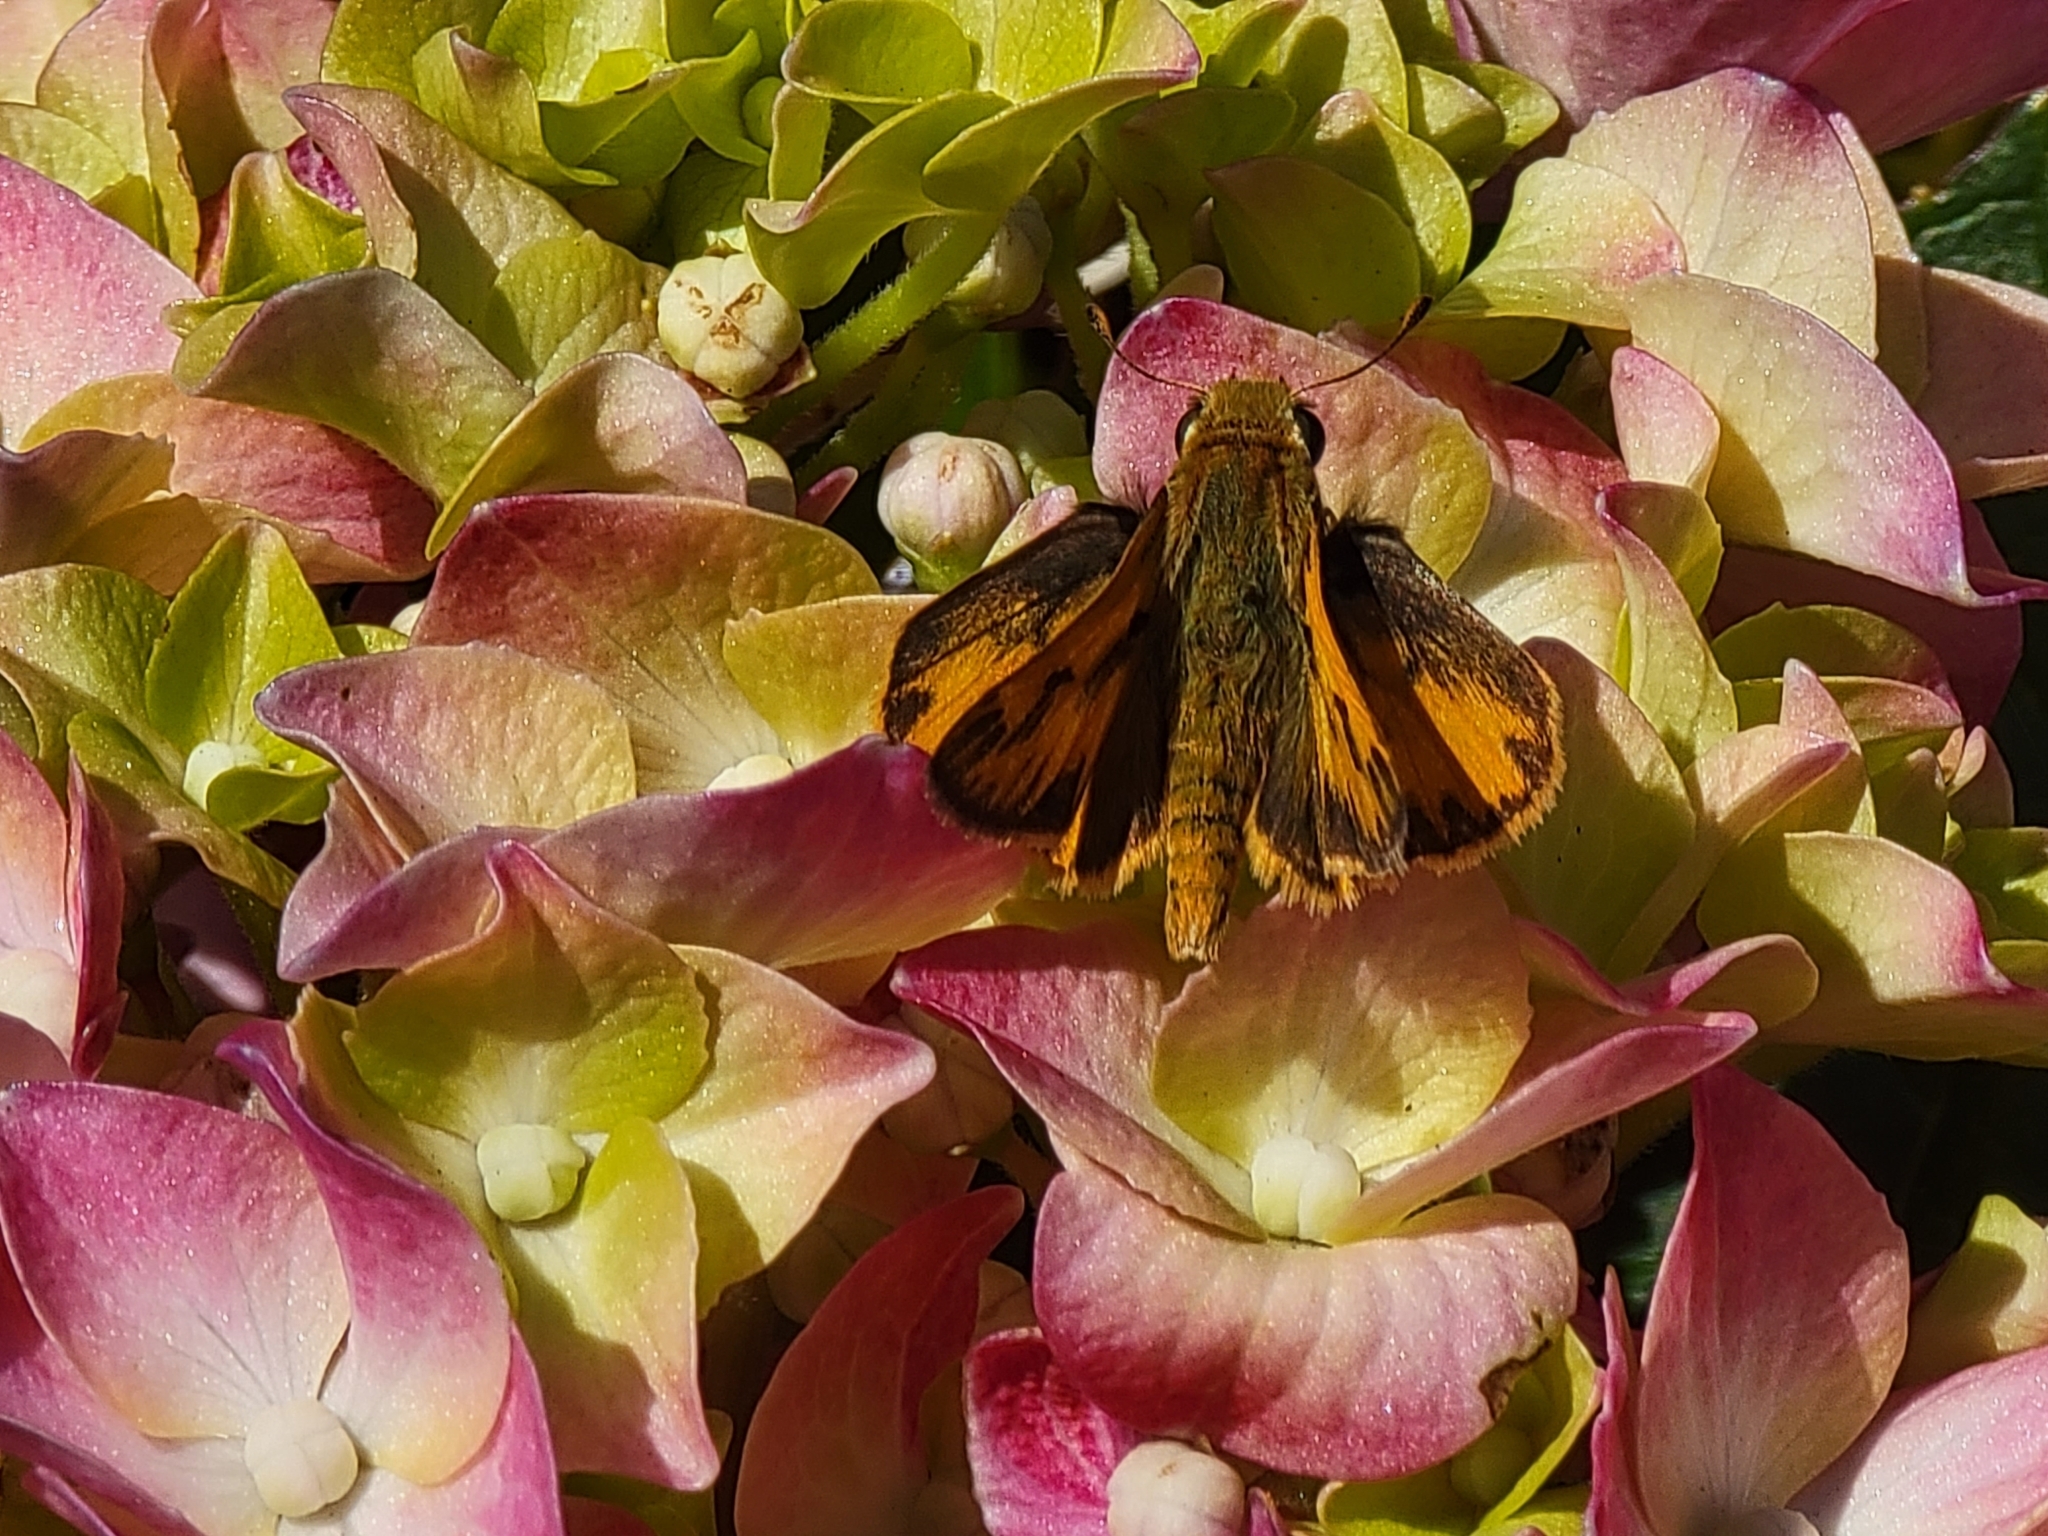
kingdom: Animalia
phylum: Arthropoda
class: Insecta
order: Lepidoptera
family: Hesperiidae
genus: Hylephila
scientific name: Hylephila phyleus
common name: Fiery skipper
